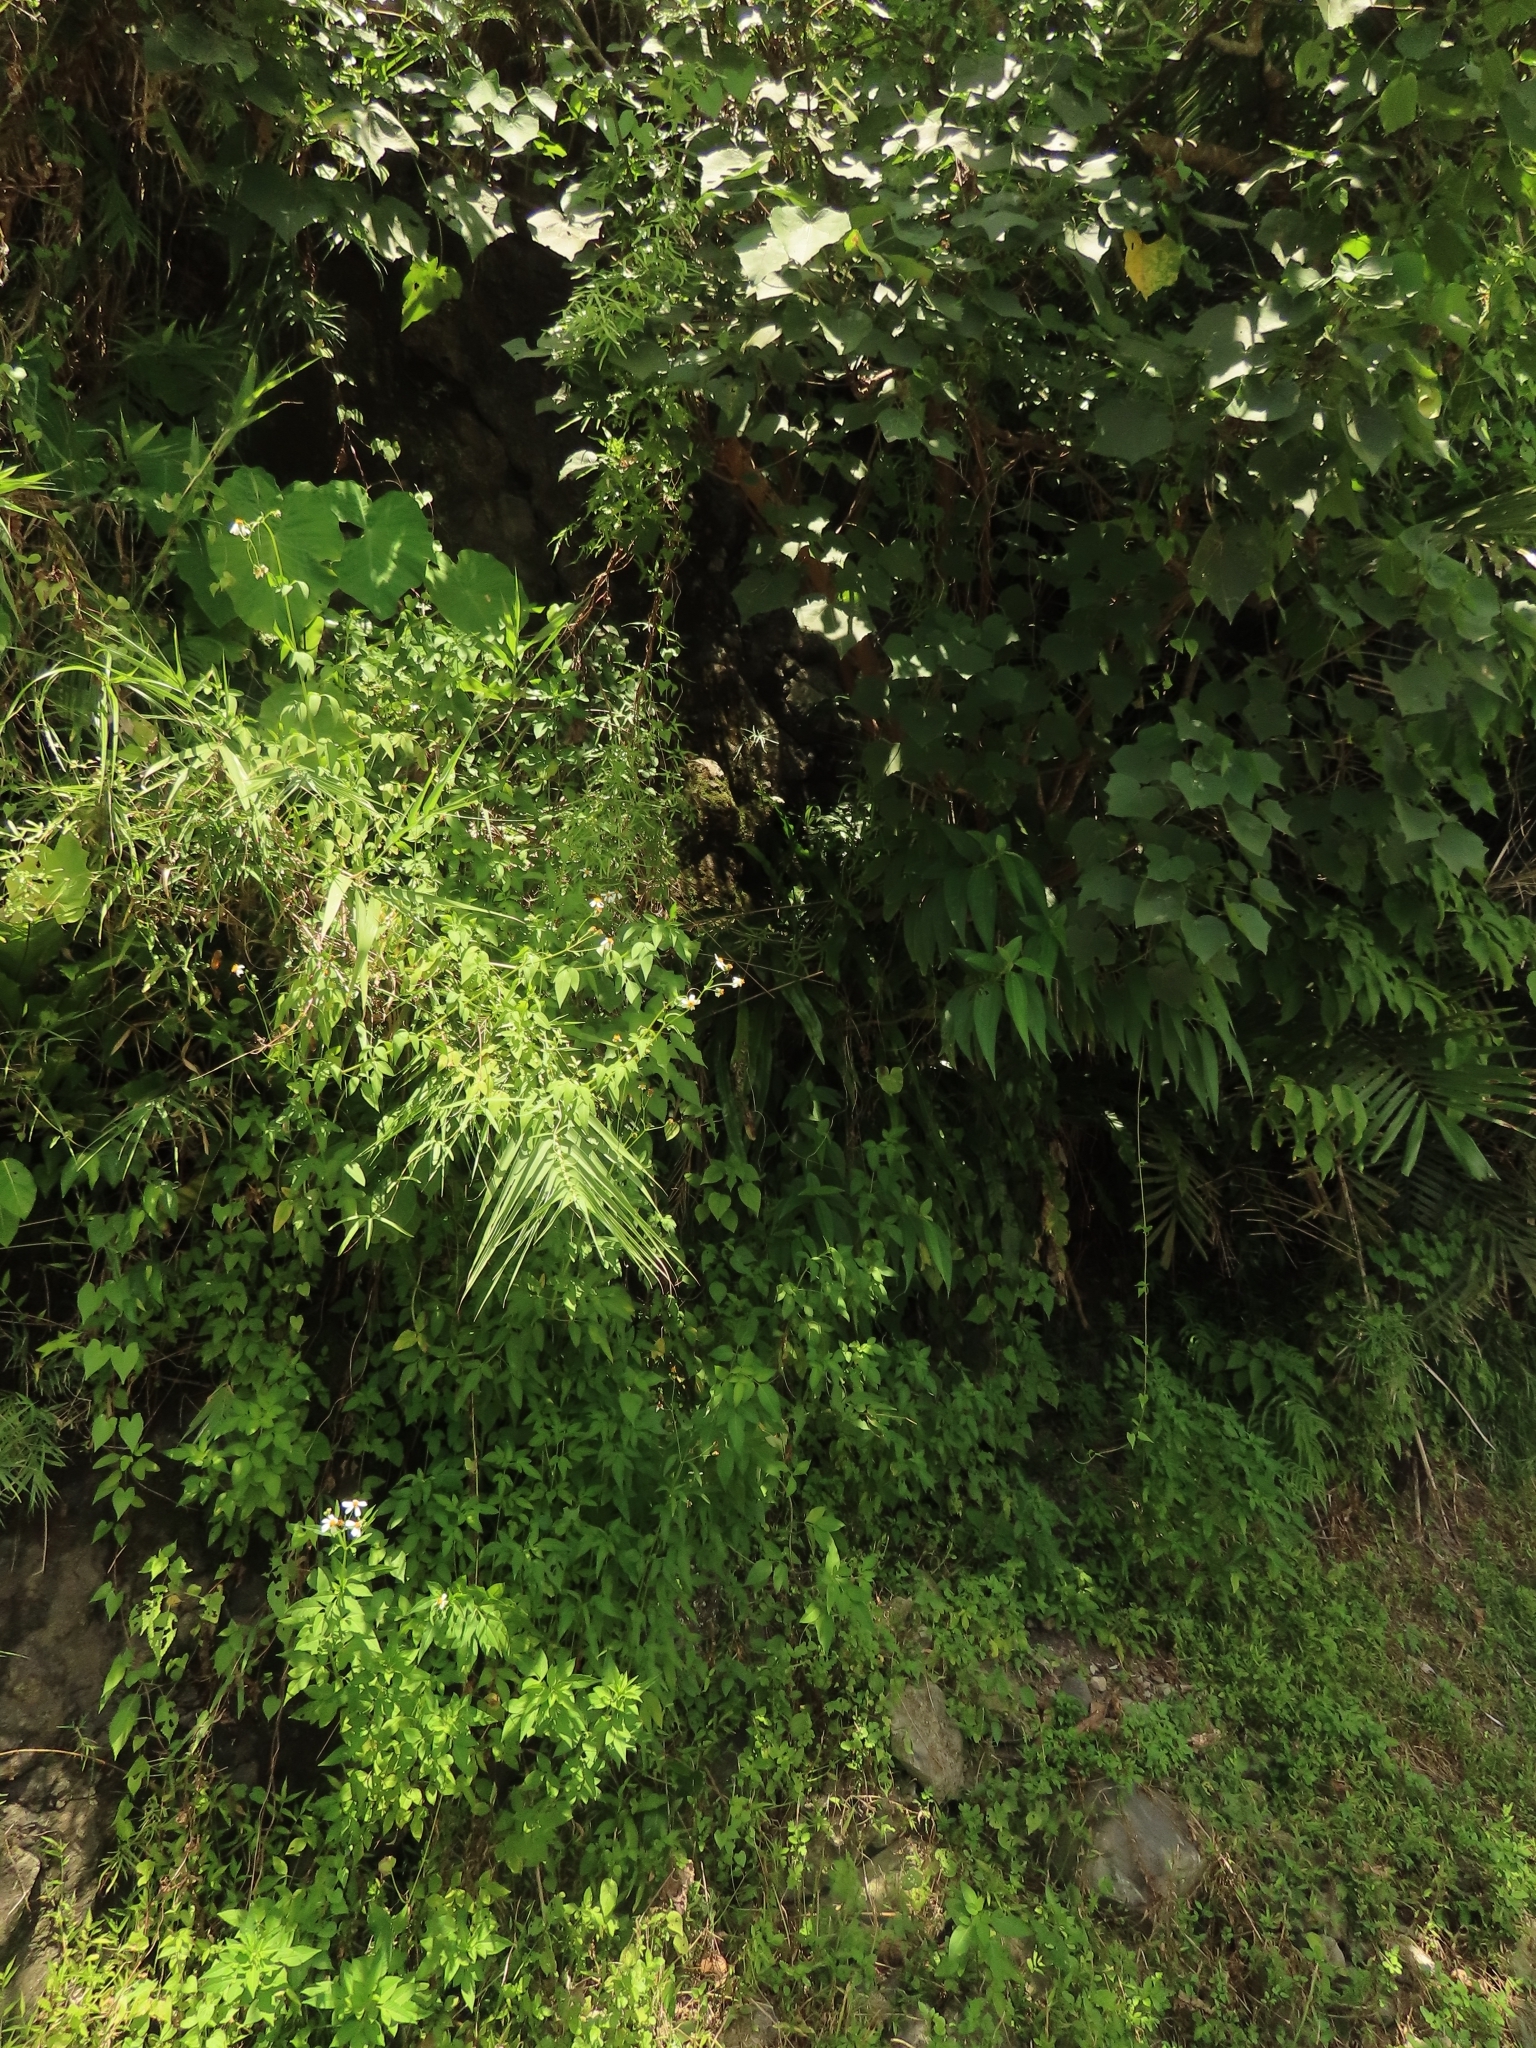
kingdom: Plantae
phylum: Tracheophyta
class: Polypodiopsida
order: Polypodiales
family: Polypodiaceae
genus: Microsorum
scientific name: Microsorum punctatum
